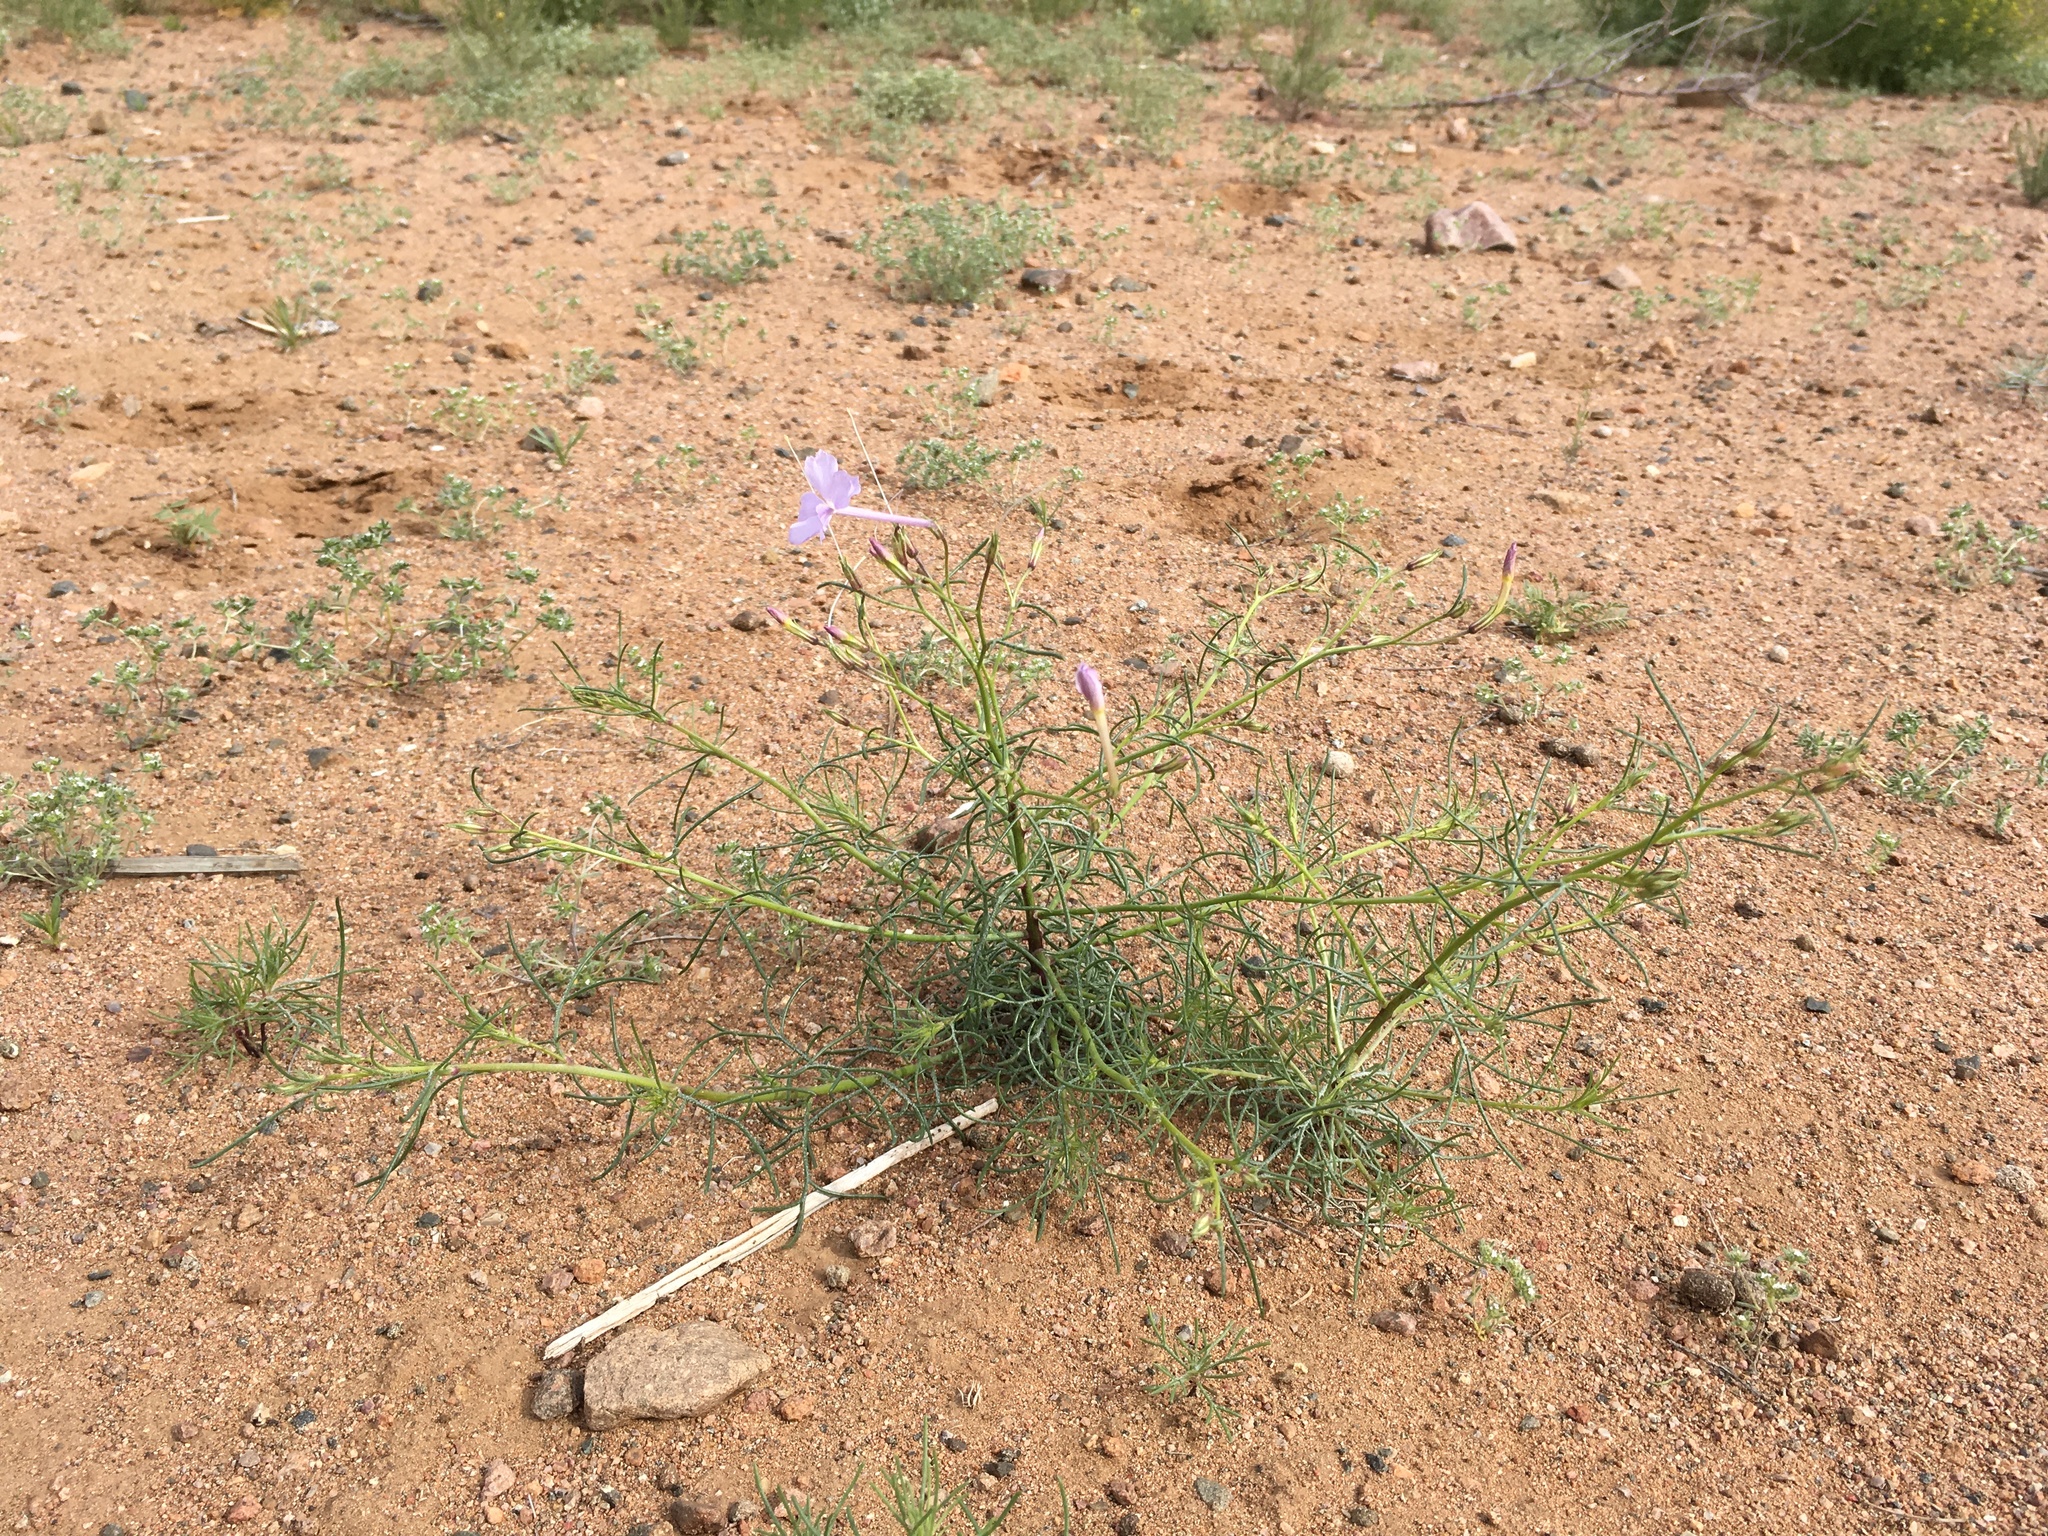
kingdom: Plantae
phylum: Tracheophyta
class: Magnoliopsida
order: Ericales
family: Polemoniaceae
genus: Ipomopsis
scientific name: Ipomopsis longiflora
